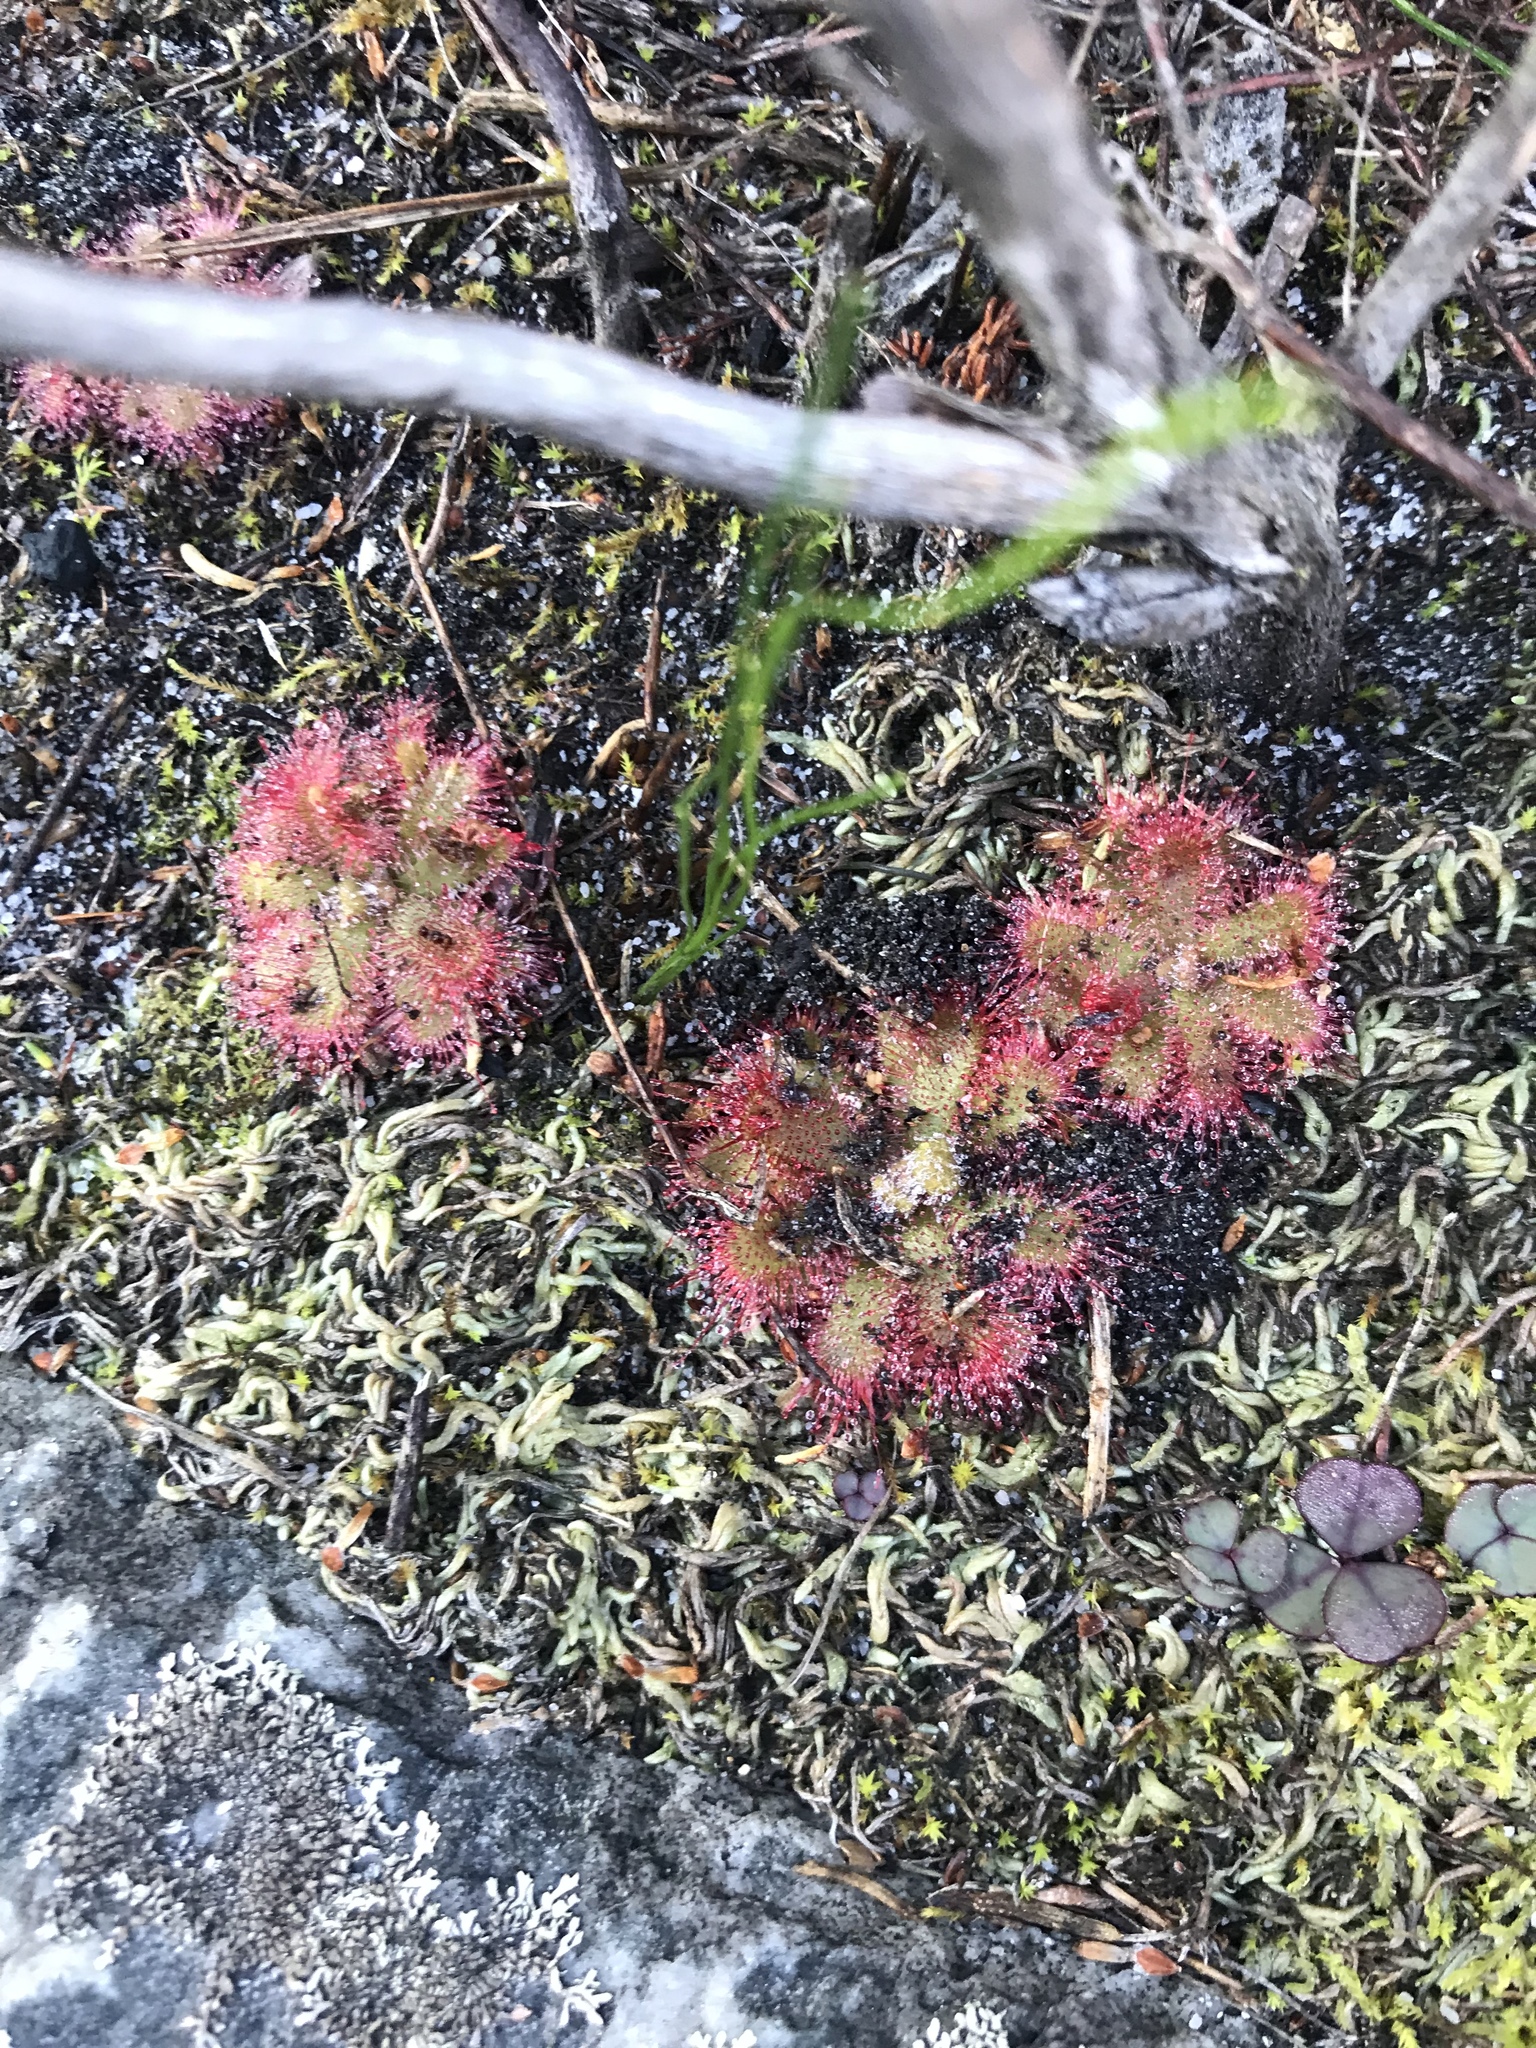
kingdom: Plantae
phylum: Tracheophyta
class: Magnoliopsida
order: Caryophyllales
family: Droseraceae
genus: Drosera
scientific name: Drosera trinervia
